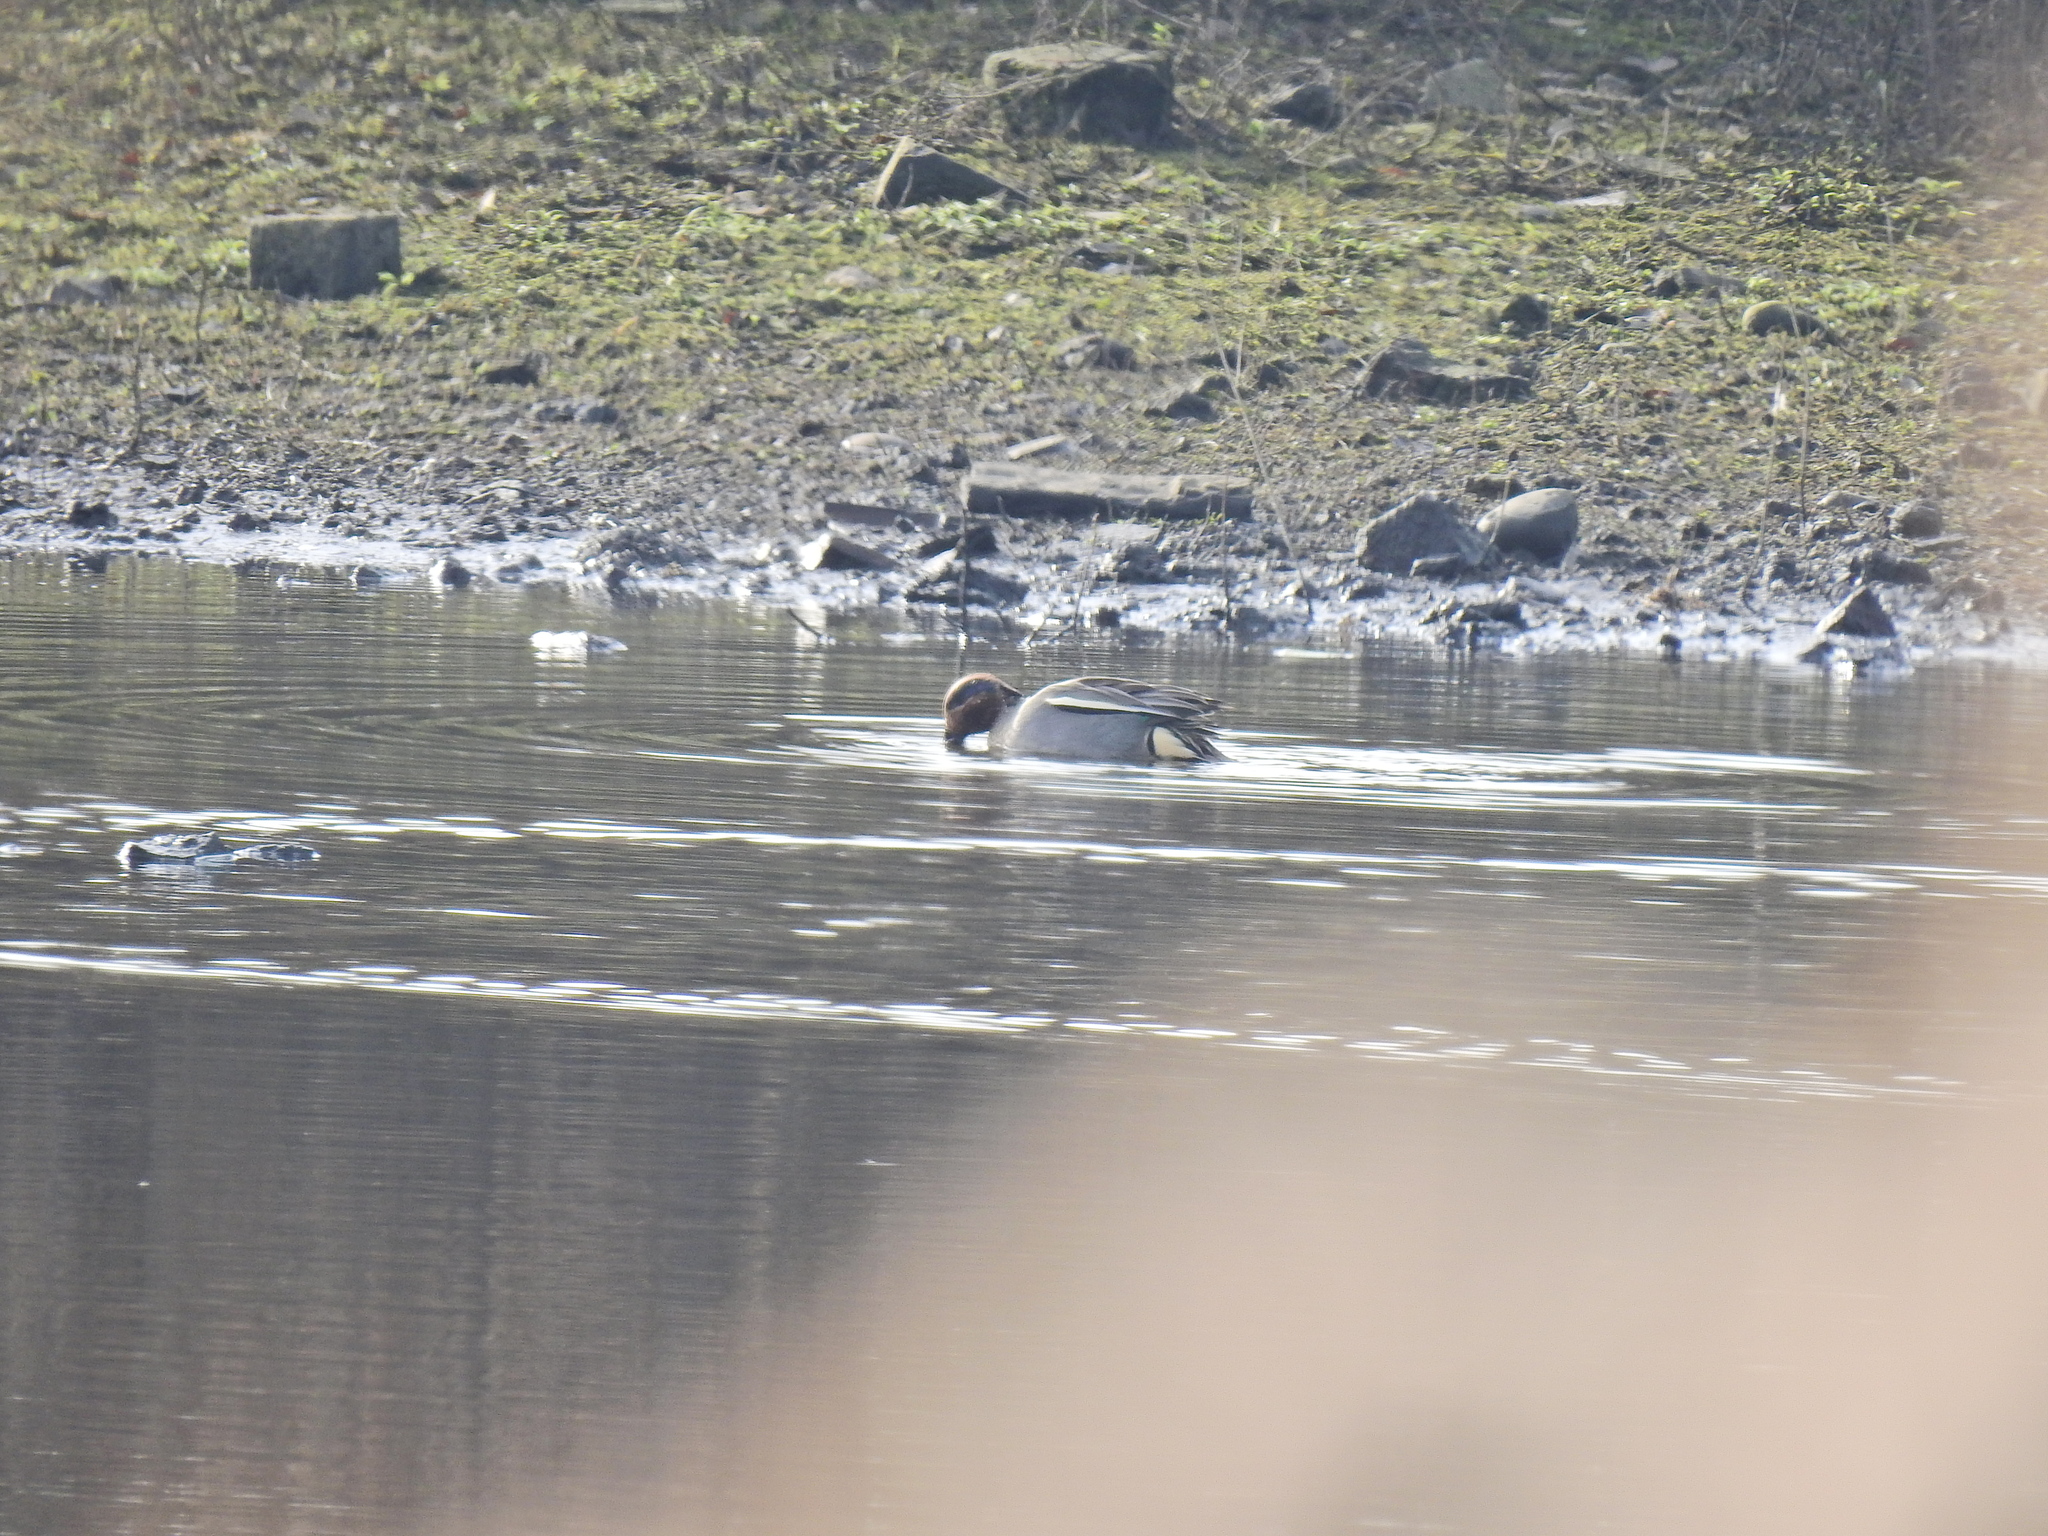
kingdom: Animalia
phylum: Chordata
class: Aves
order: Anseriformes
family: Anatidae
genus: Anas
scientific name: Anas crecca
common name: Eurasian teal
